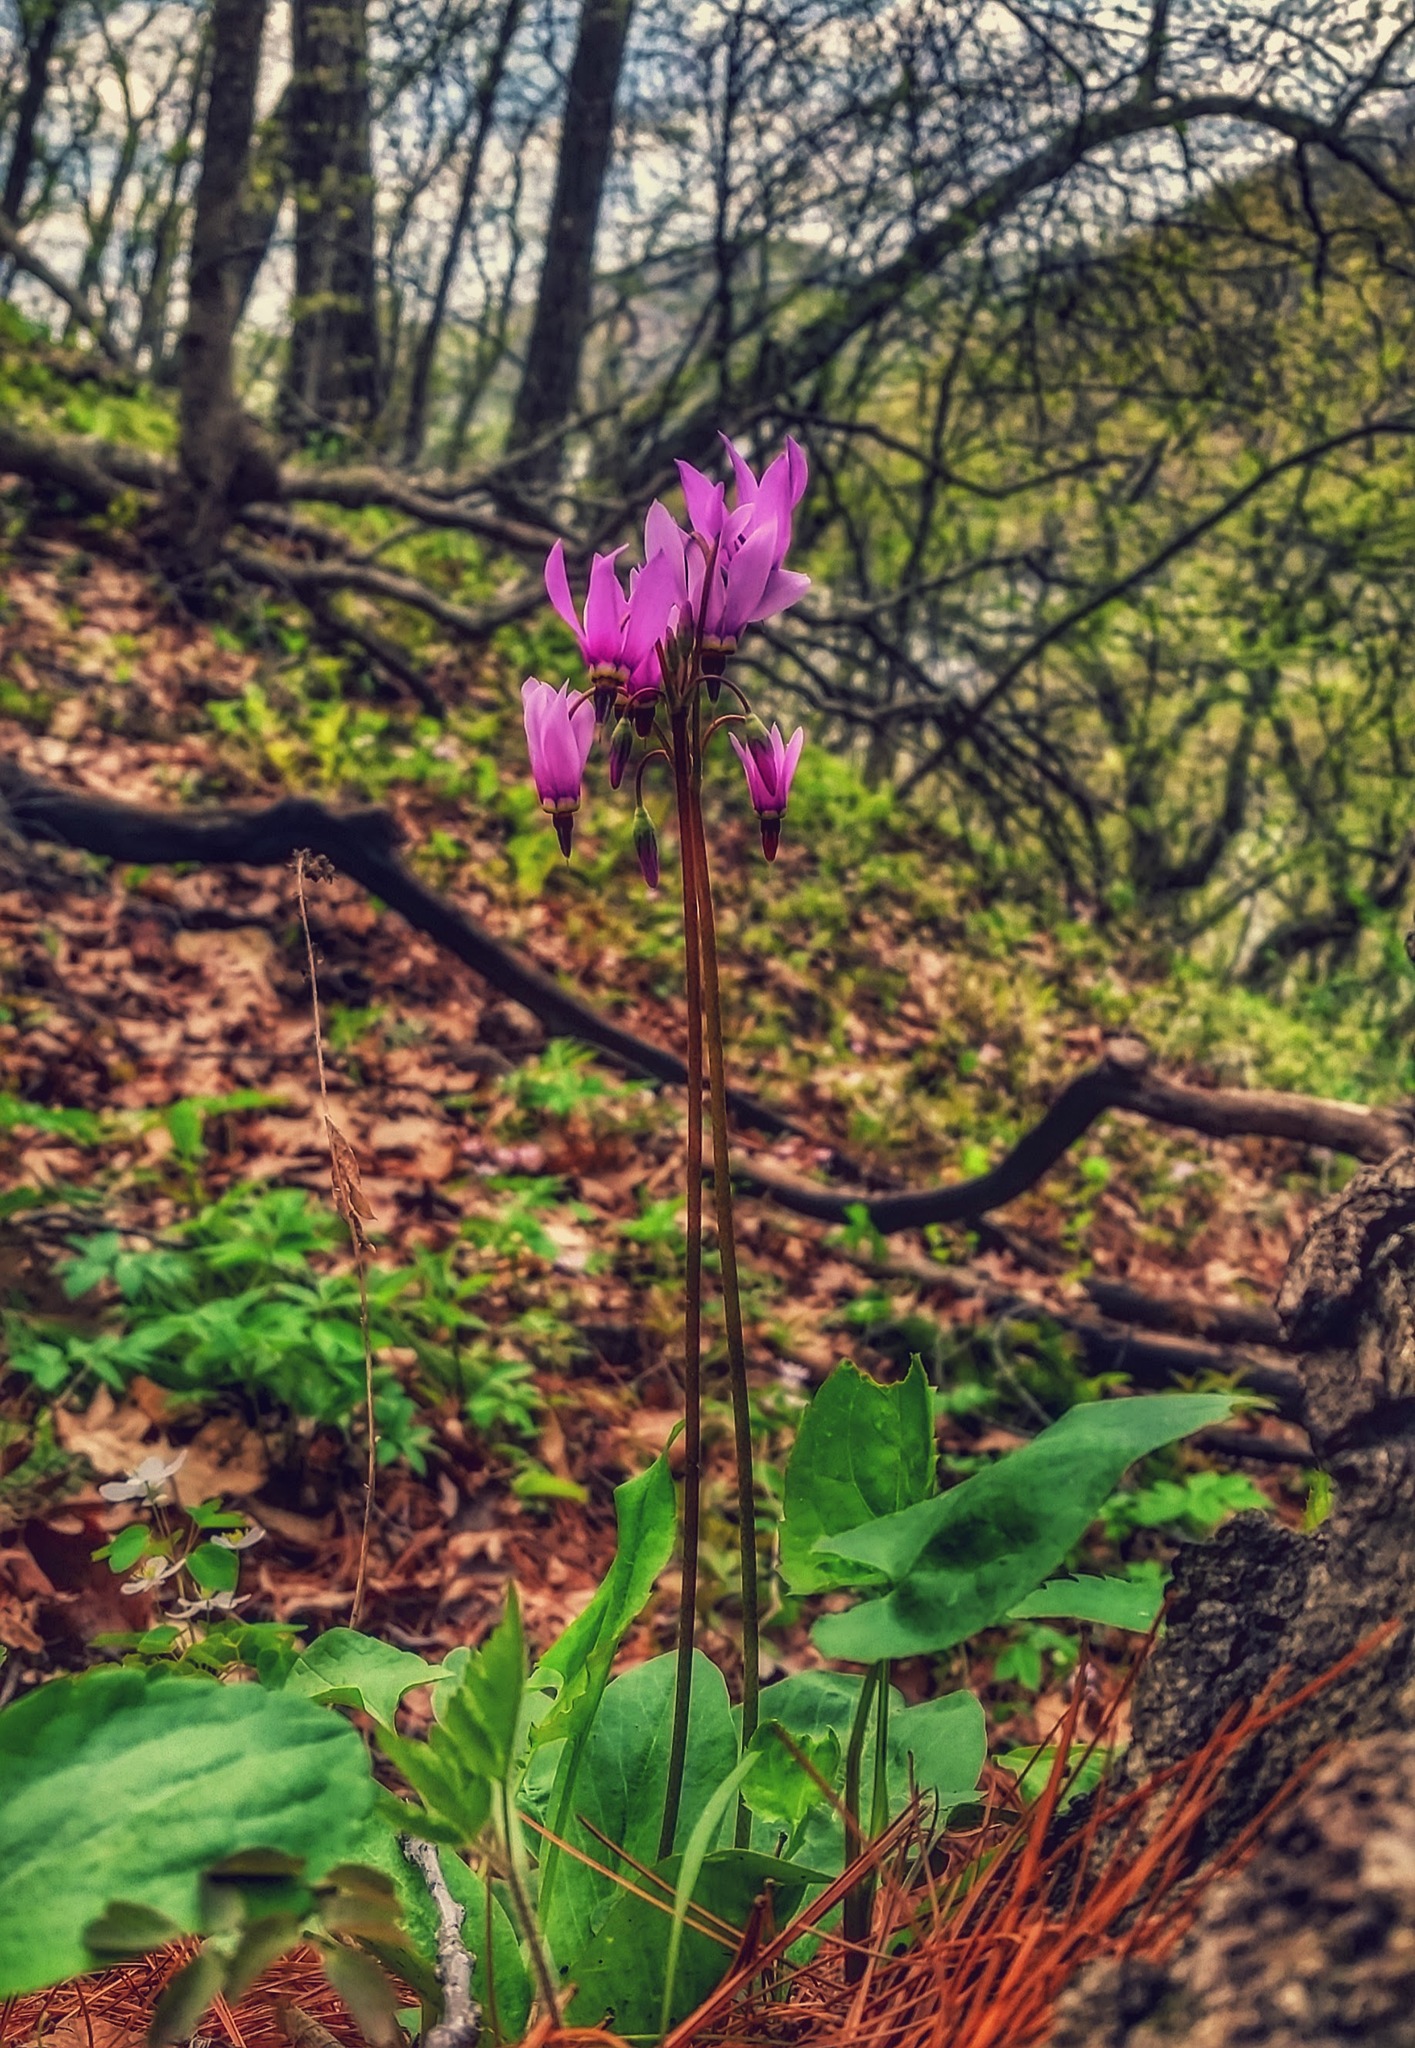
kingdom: Plantae
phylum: Tracheophyta
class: Magnoliopsida
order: Ericales
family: Primulaceae
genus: Dodecatheon
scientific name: Dodecatheon amethystinum
